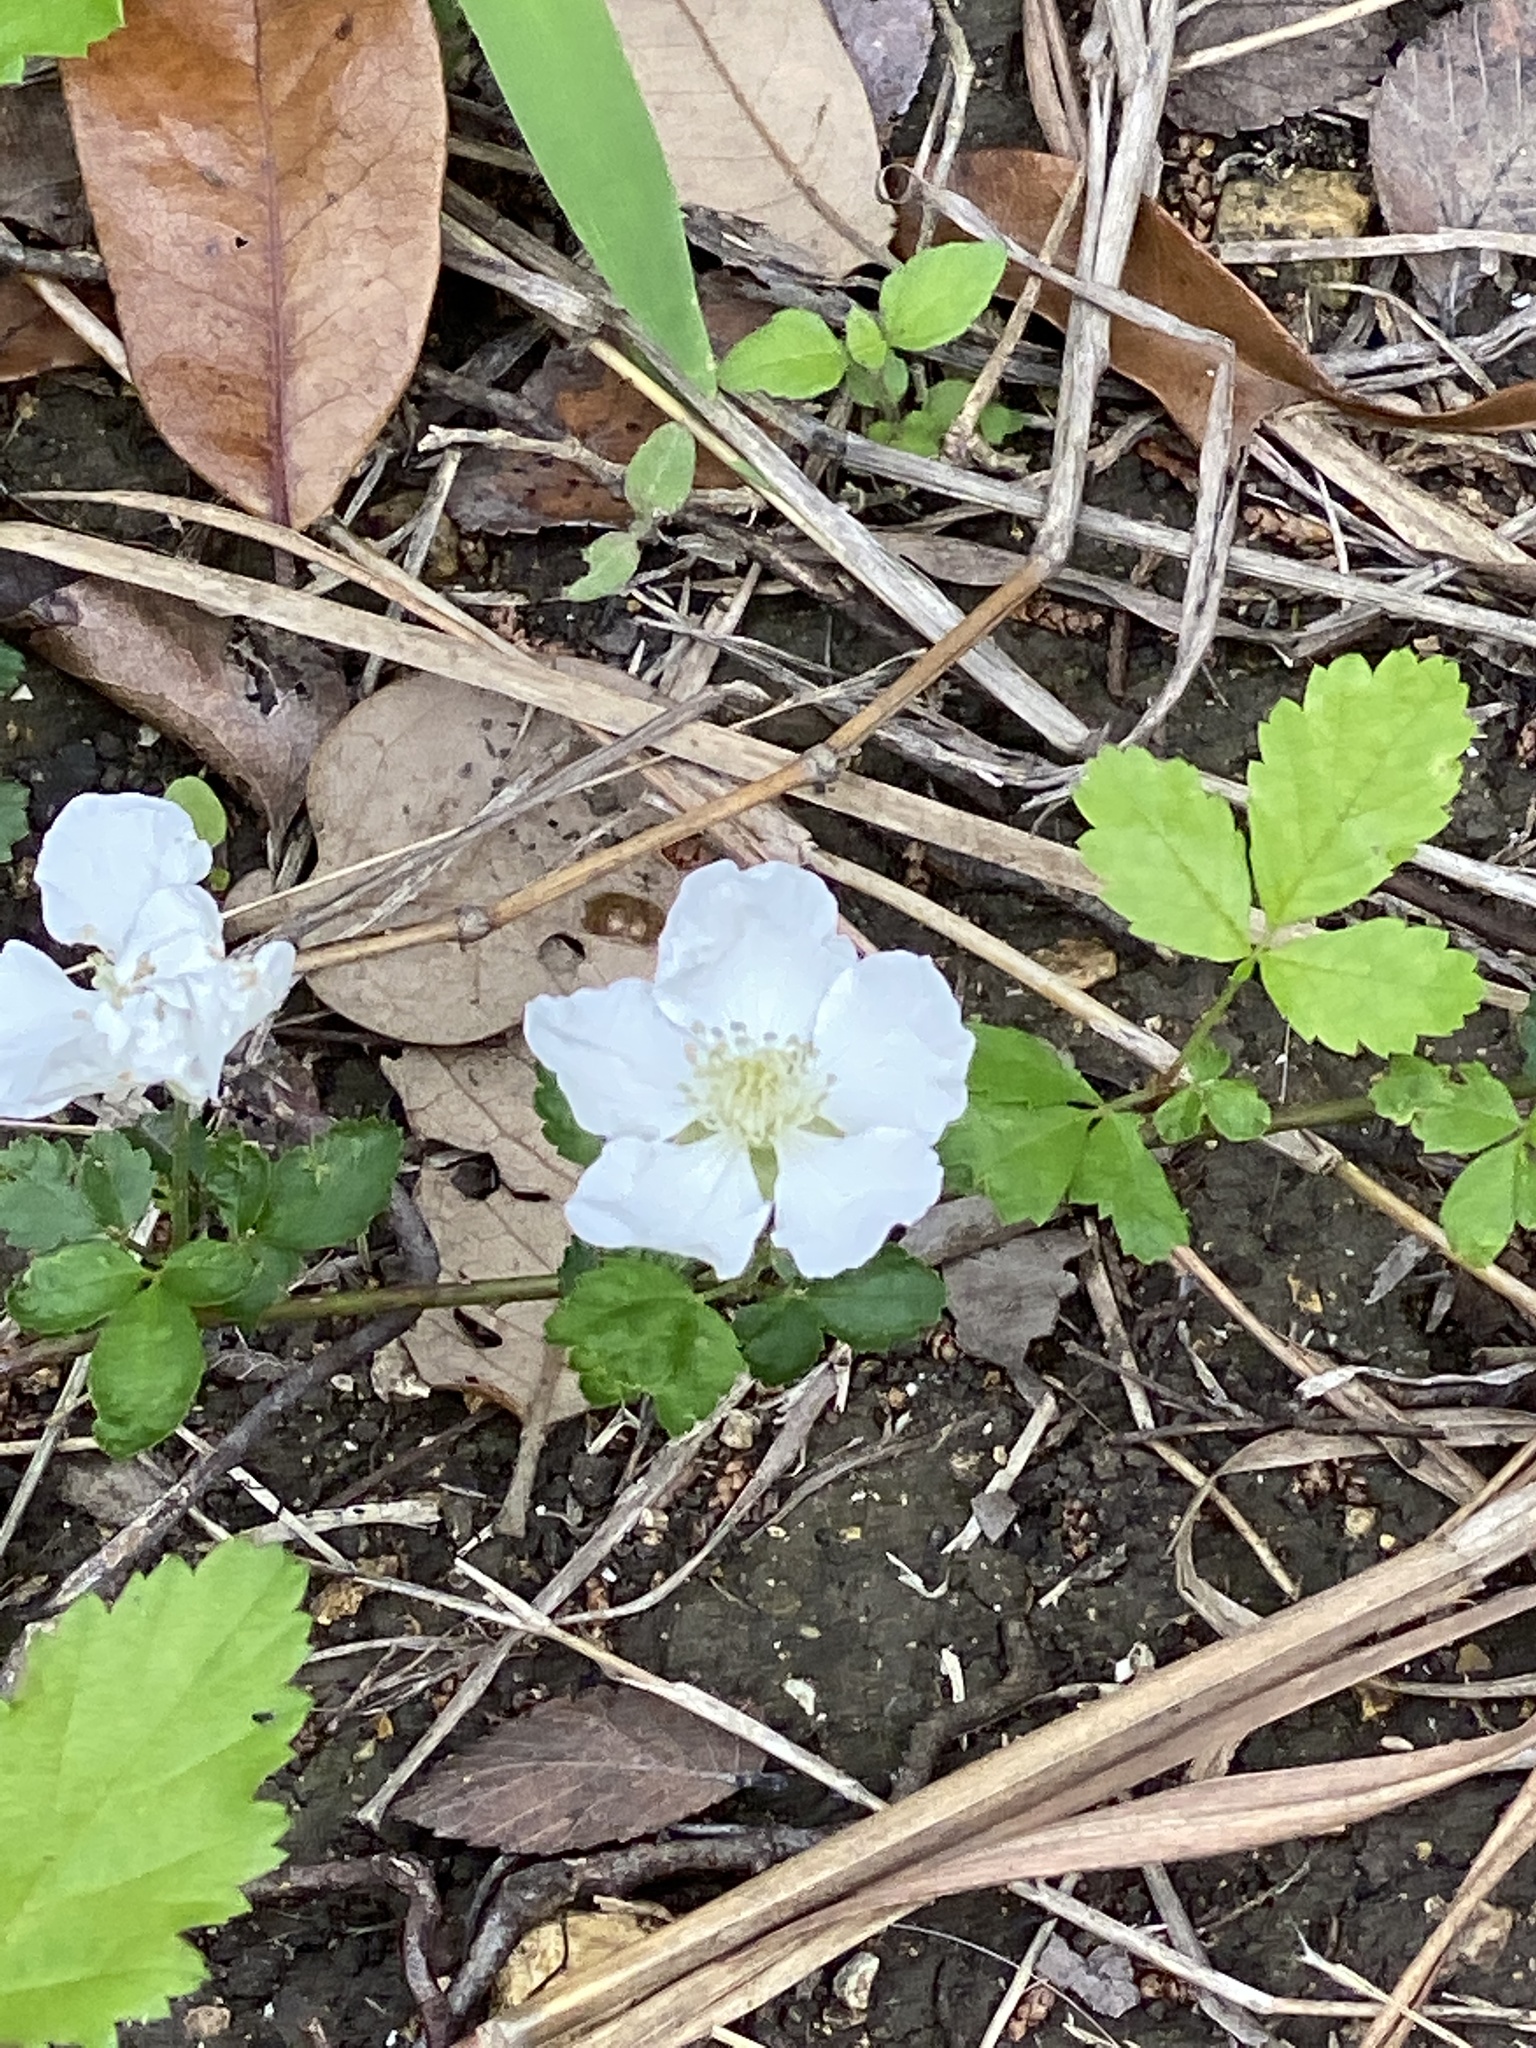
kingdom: Plantae
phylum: Tracheophyta
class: Magnoliopsida
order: Rosales
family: Rosaceae
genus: Rubus
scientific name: Rubus trivialis
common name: Southern dewberry
